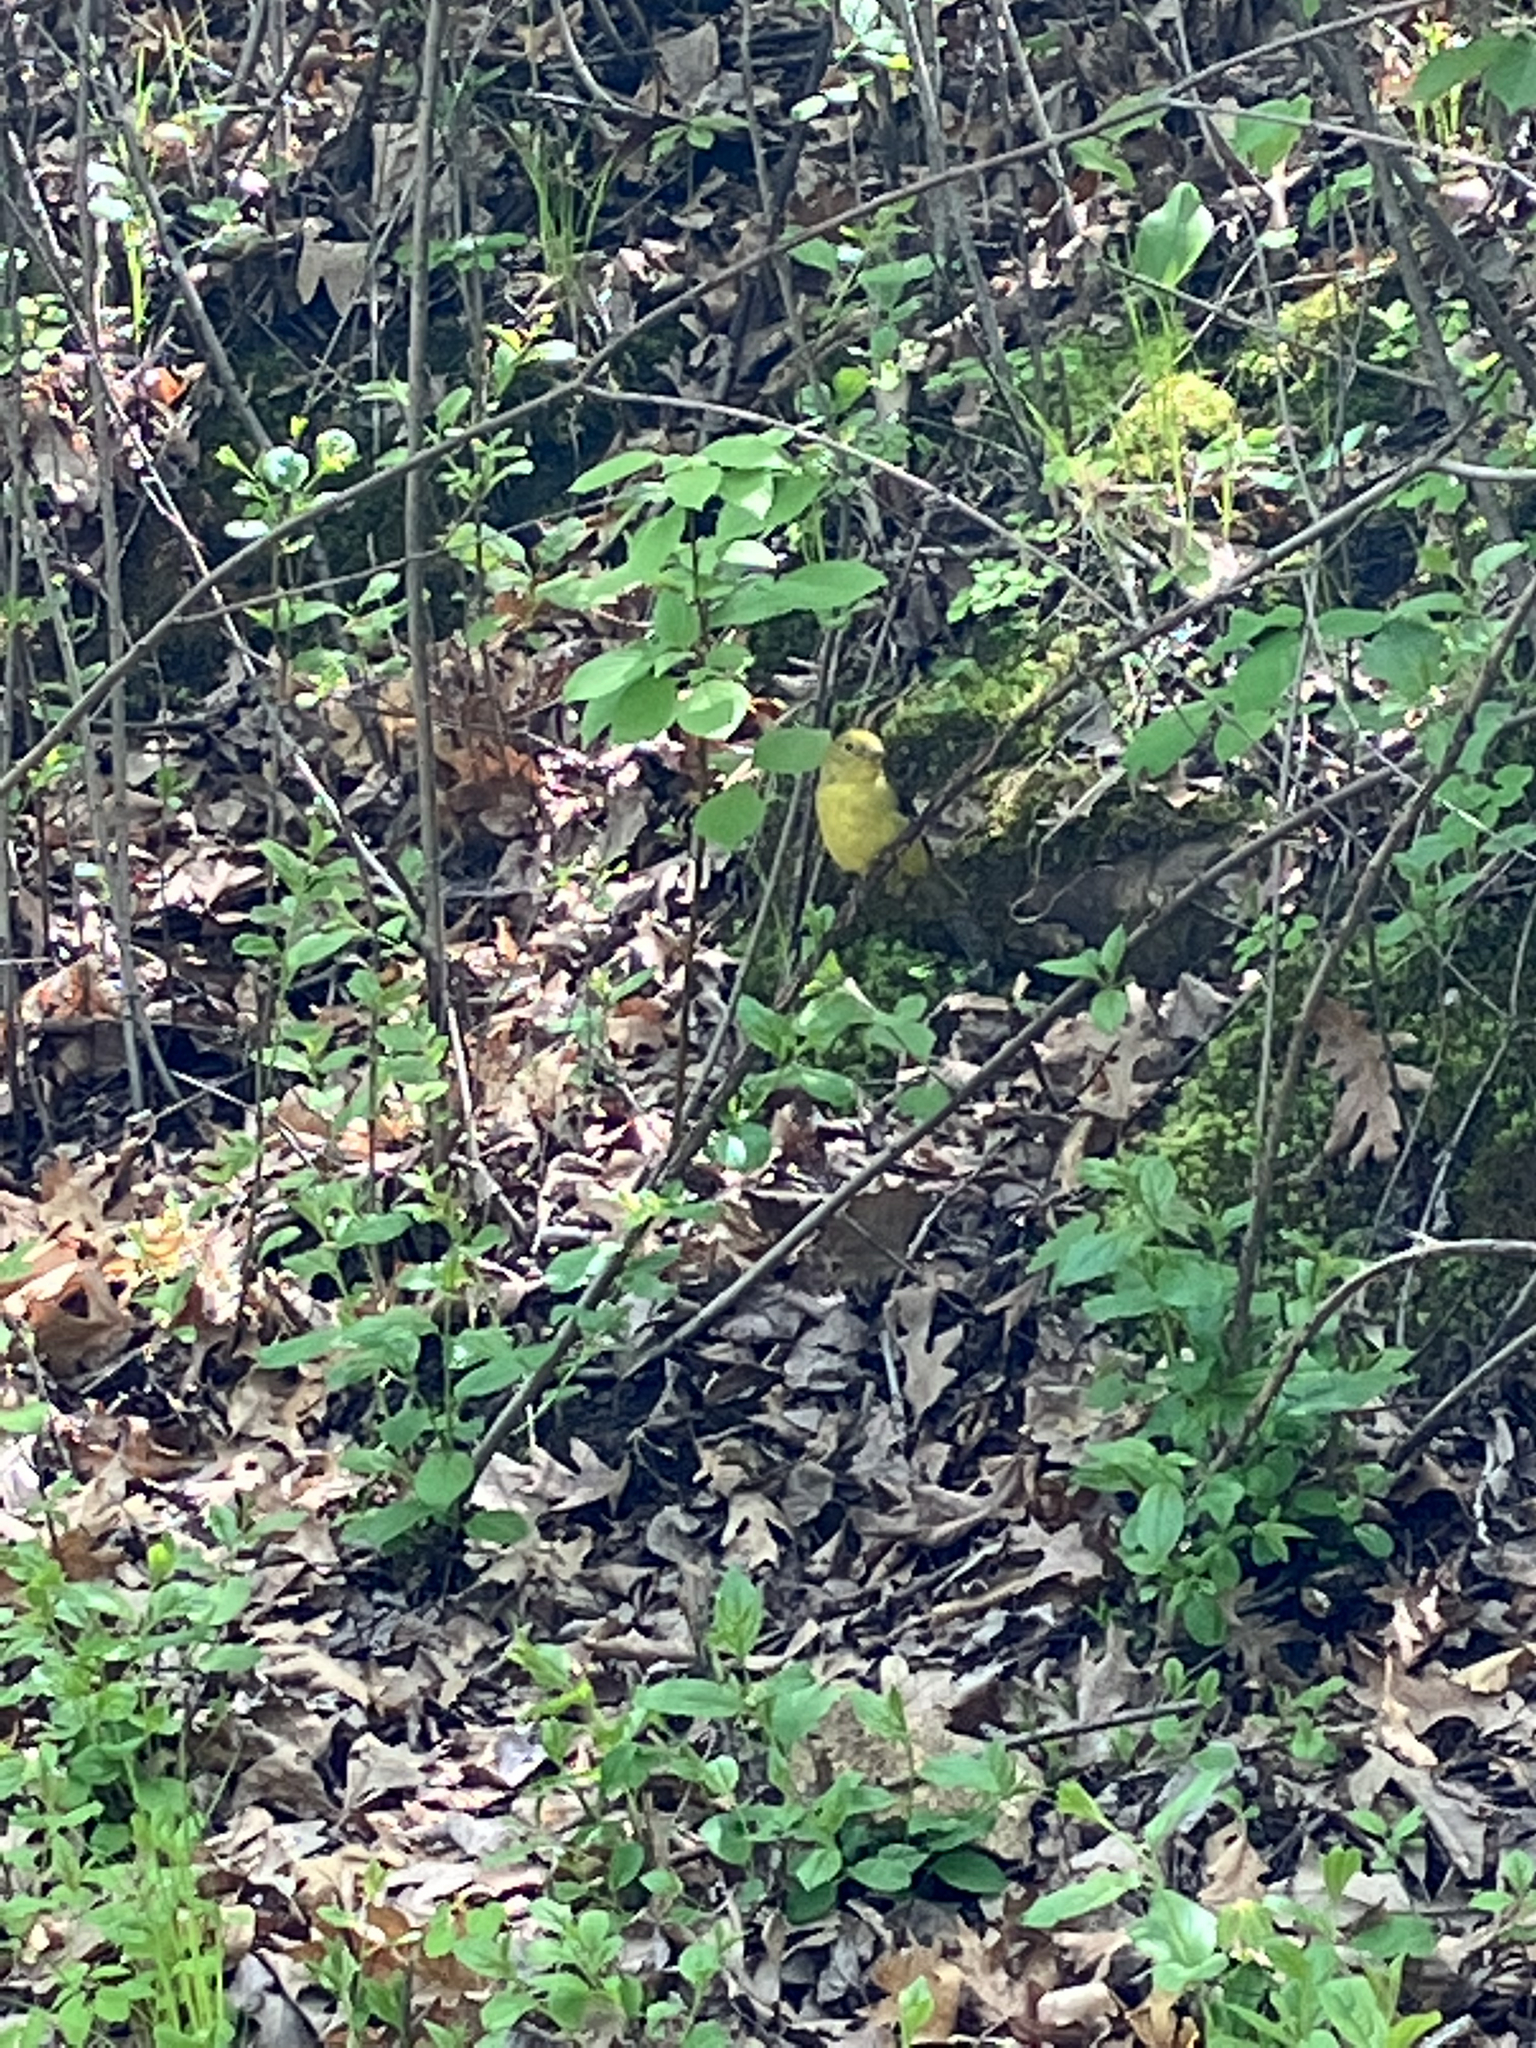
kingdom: Animalia
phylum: Chordata
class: Aves
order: Passeriformes
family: Cardinalidae
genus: Piranga
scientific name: Piranga olivacea
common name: Scarlet tanager
